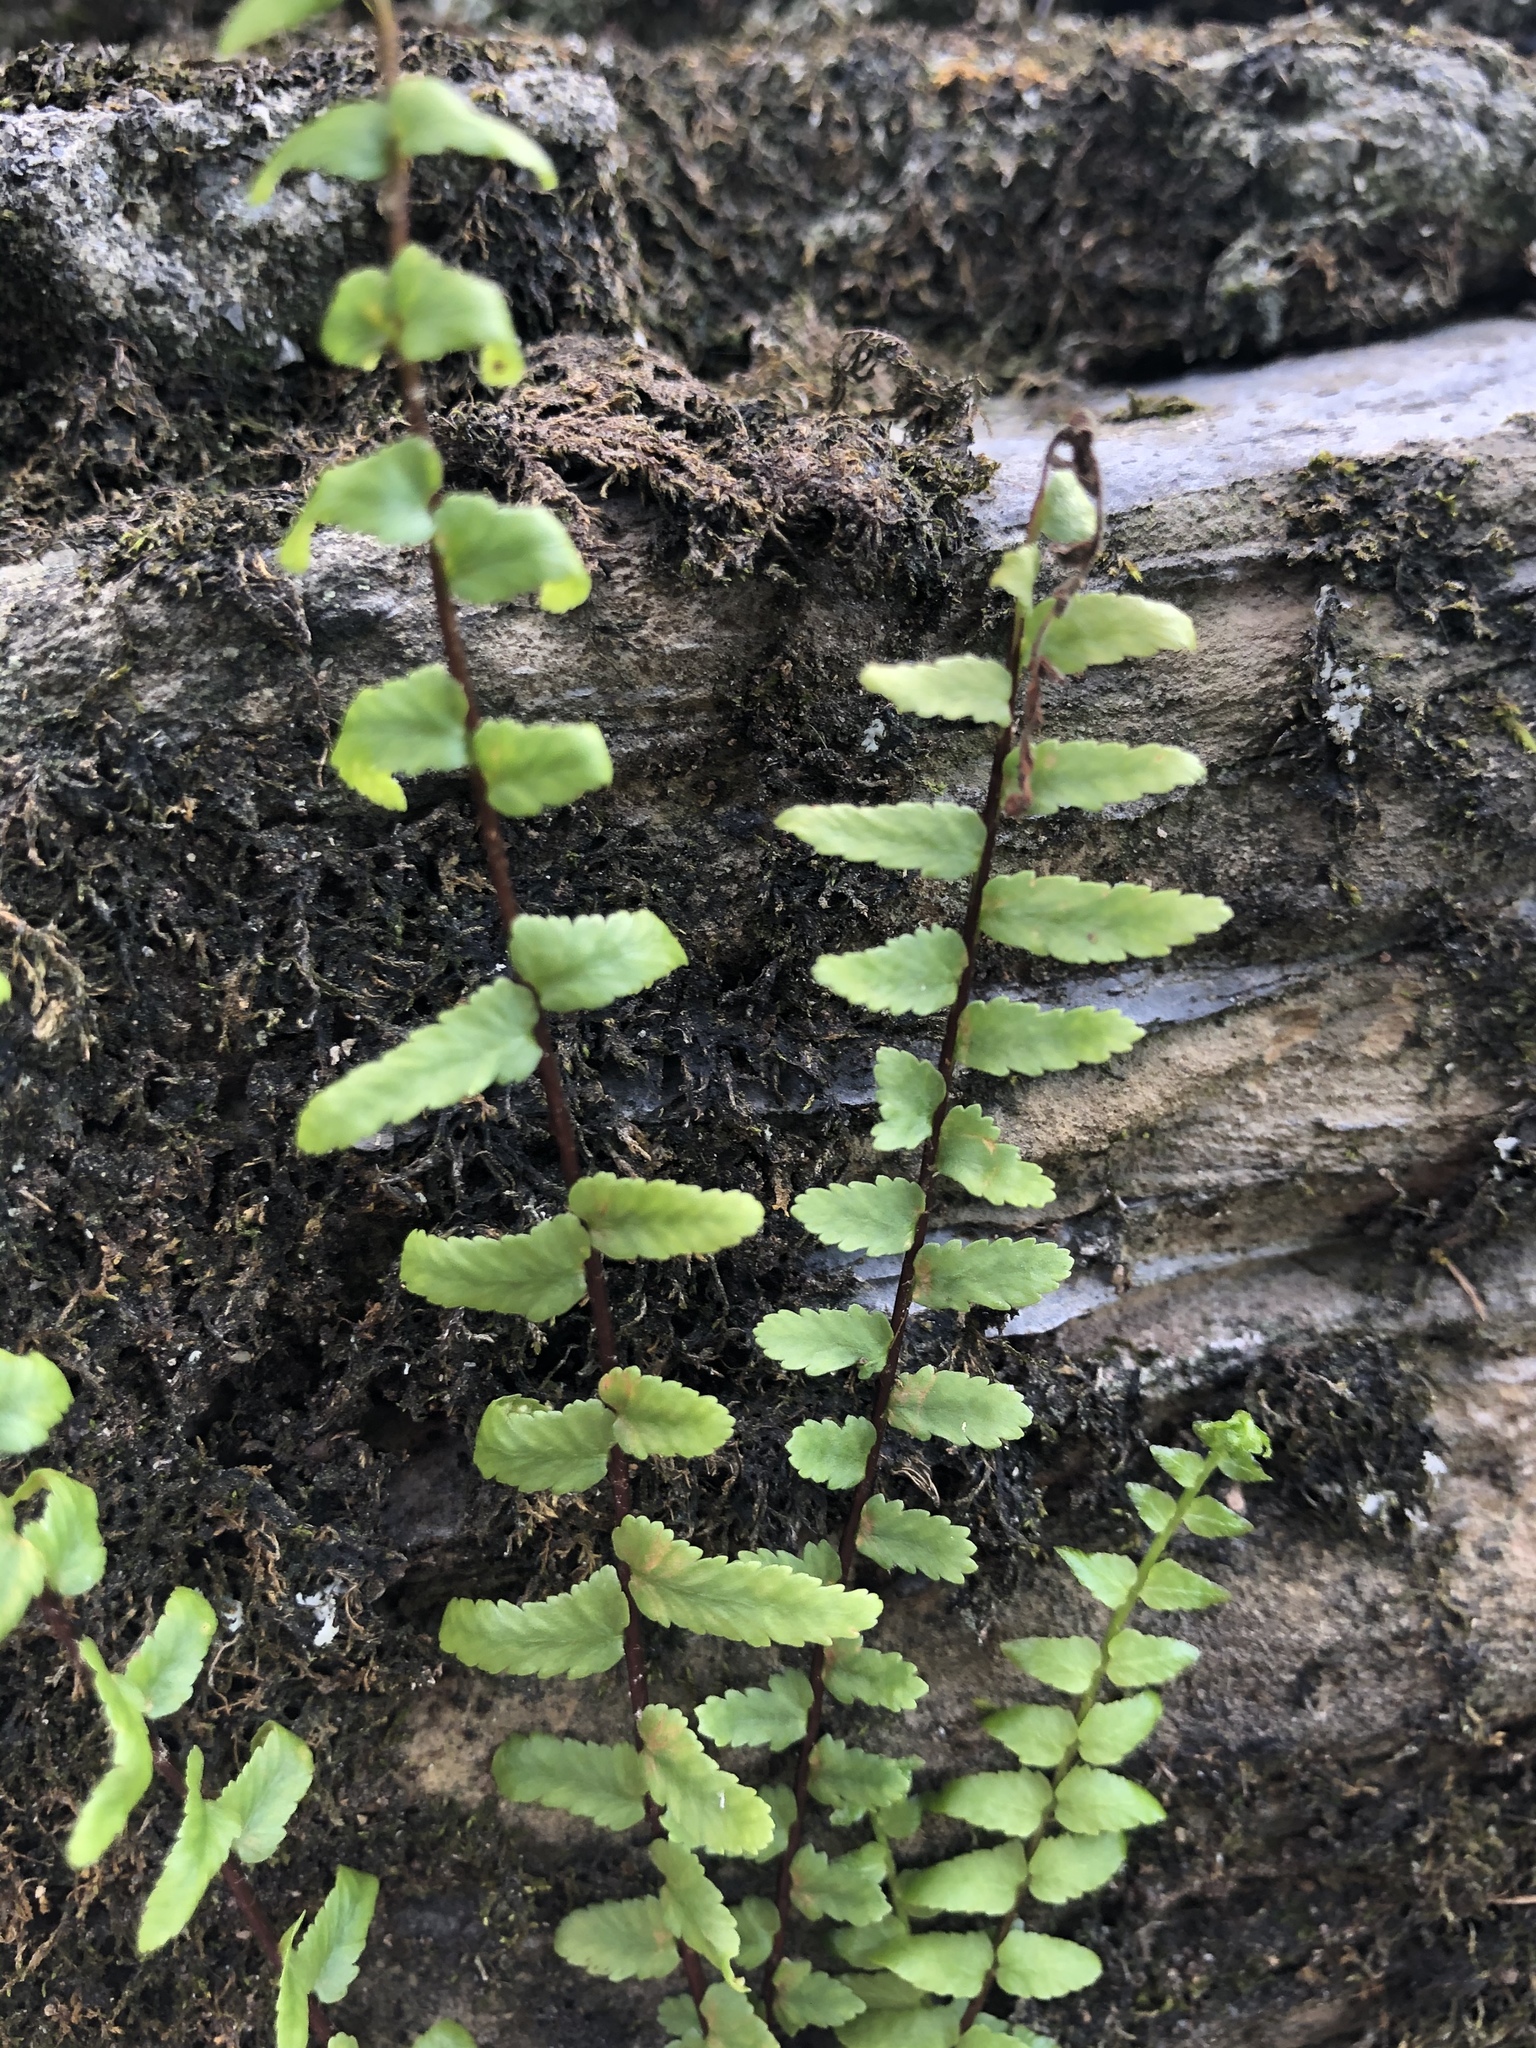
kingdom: Plantae
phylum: Tracheophyta
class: Polypodiopsida
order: Polypodiales
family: Aspleniaceae
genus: Asplenium
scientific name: Asplenium platyneuron
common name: Ebony spleenwort
